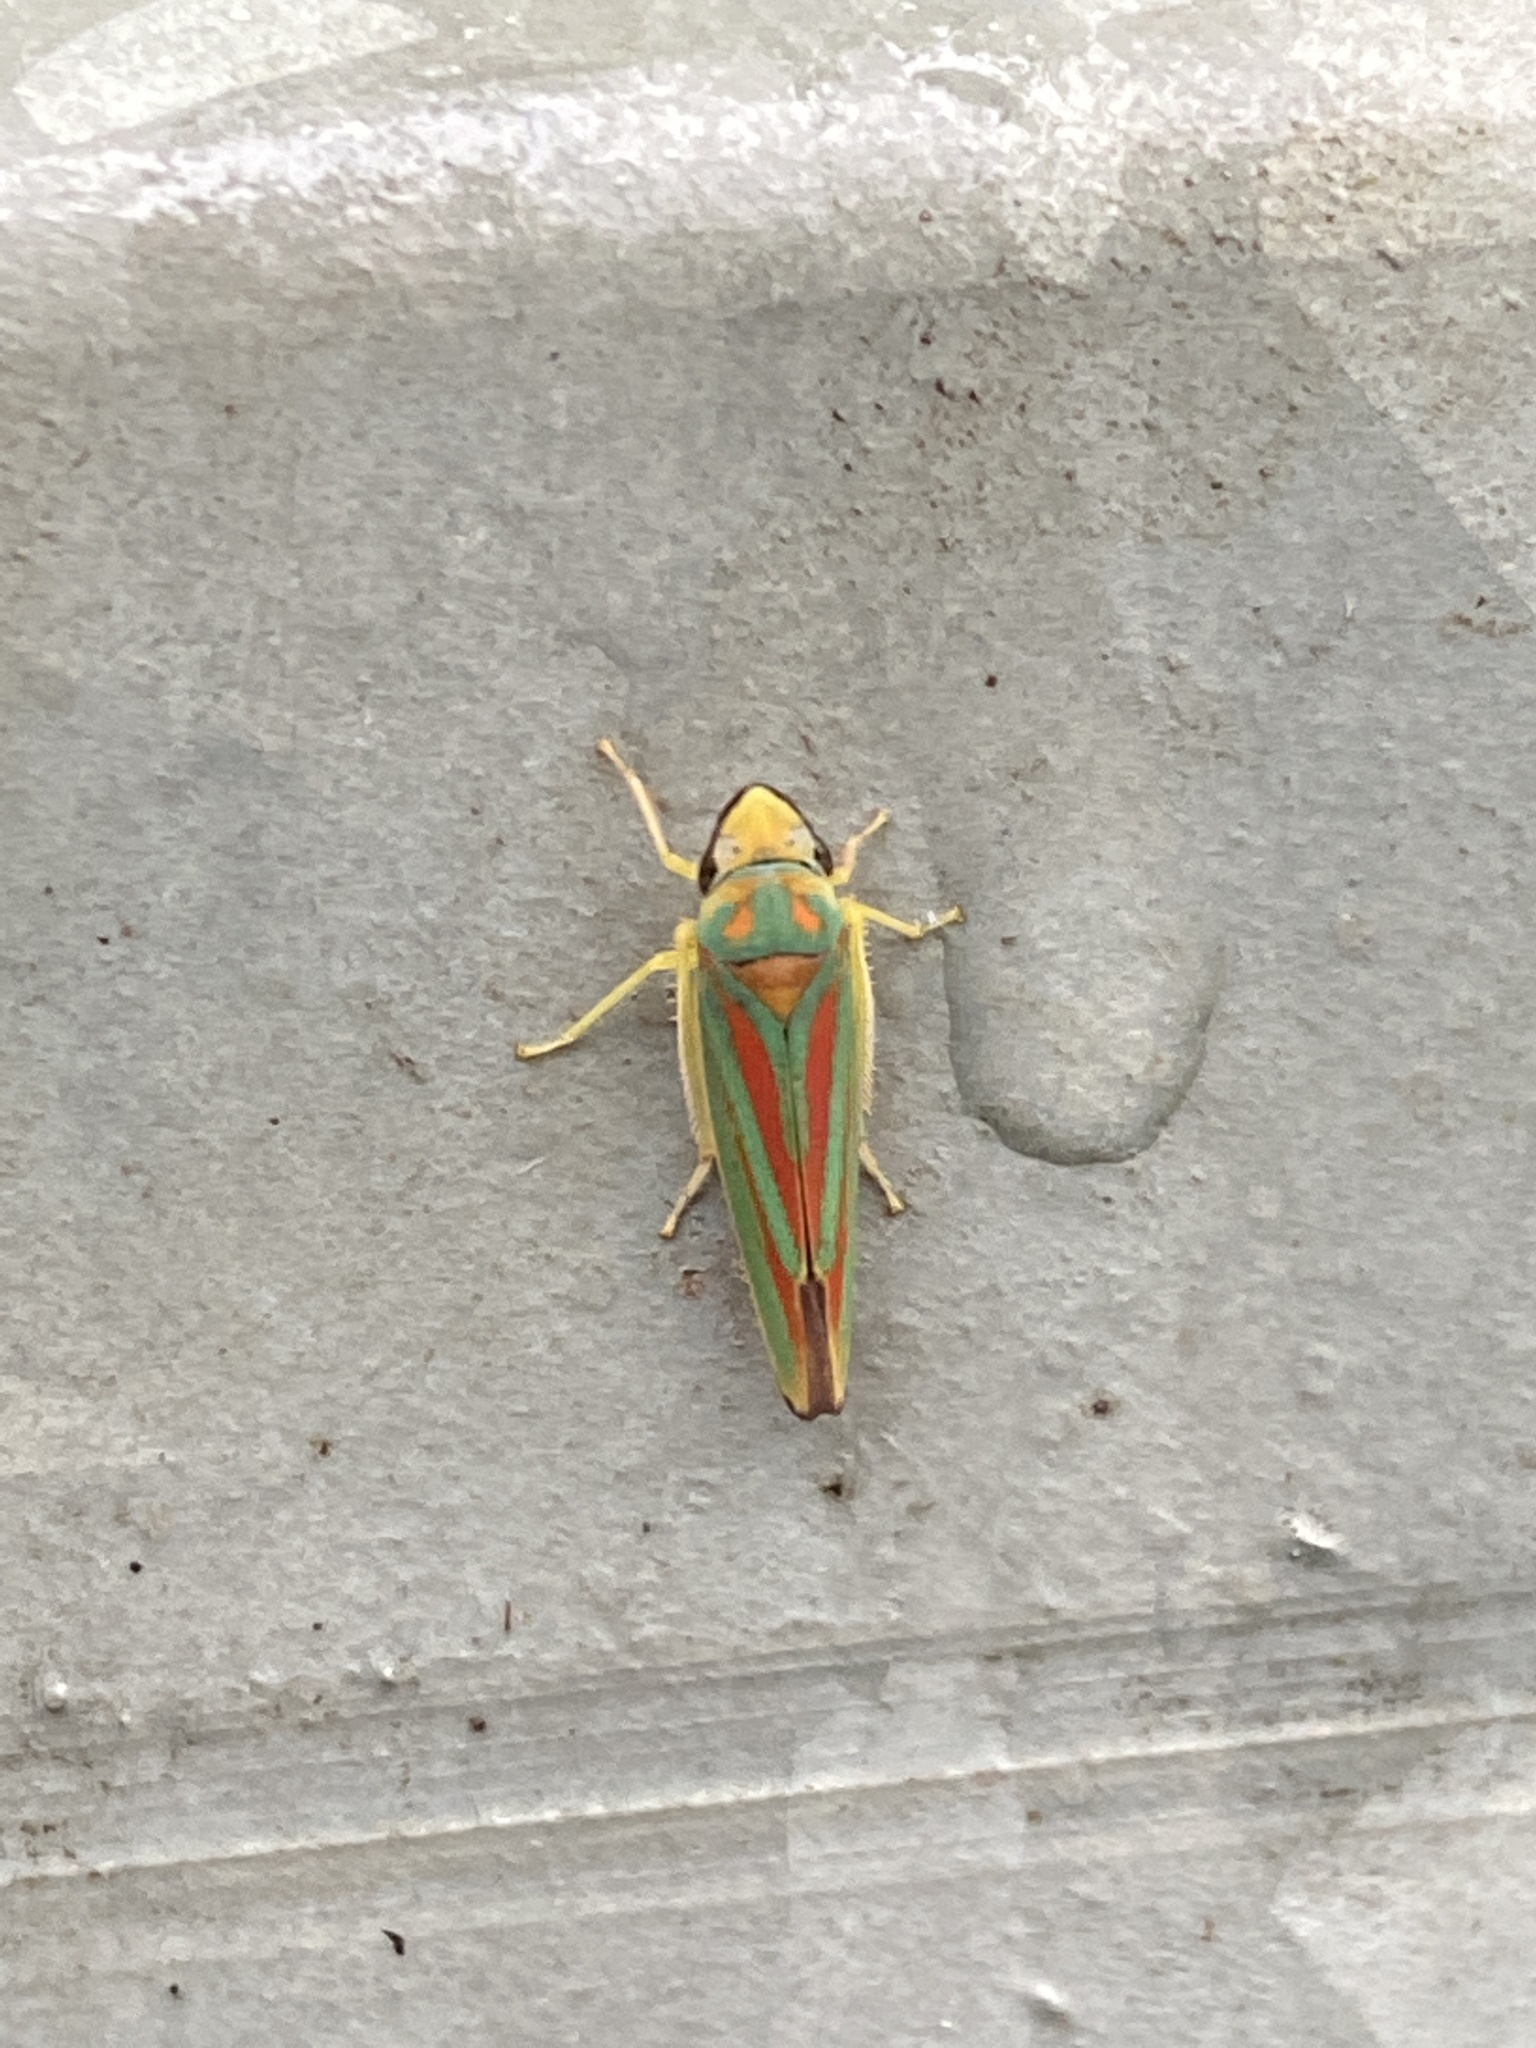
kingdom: Animalia
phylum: Arthropoda
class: Insecta
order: Hemiptera
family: Cicadellidae
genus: Graphocephala
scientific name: Graphocephala fennahi
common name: Rhododendron leafhopper
